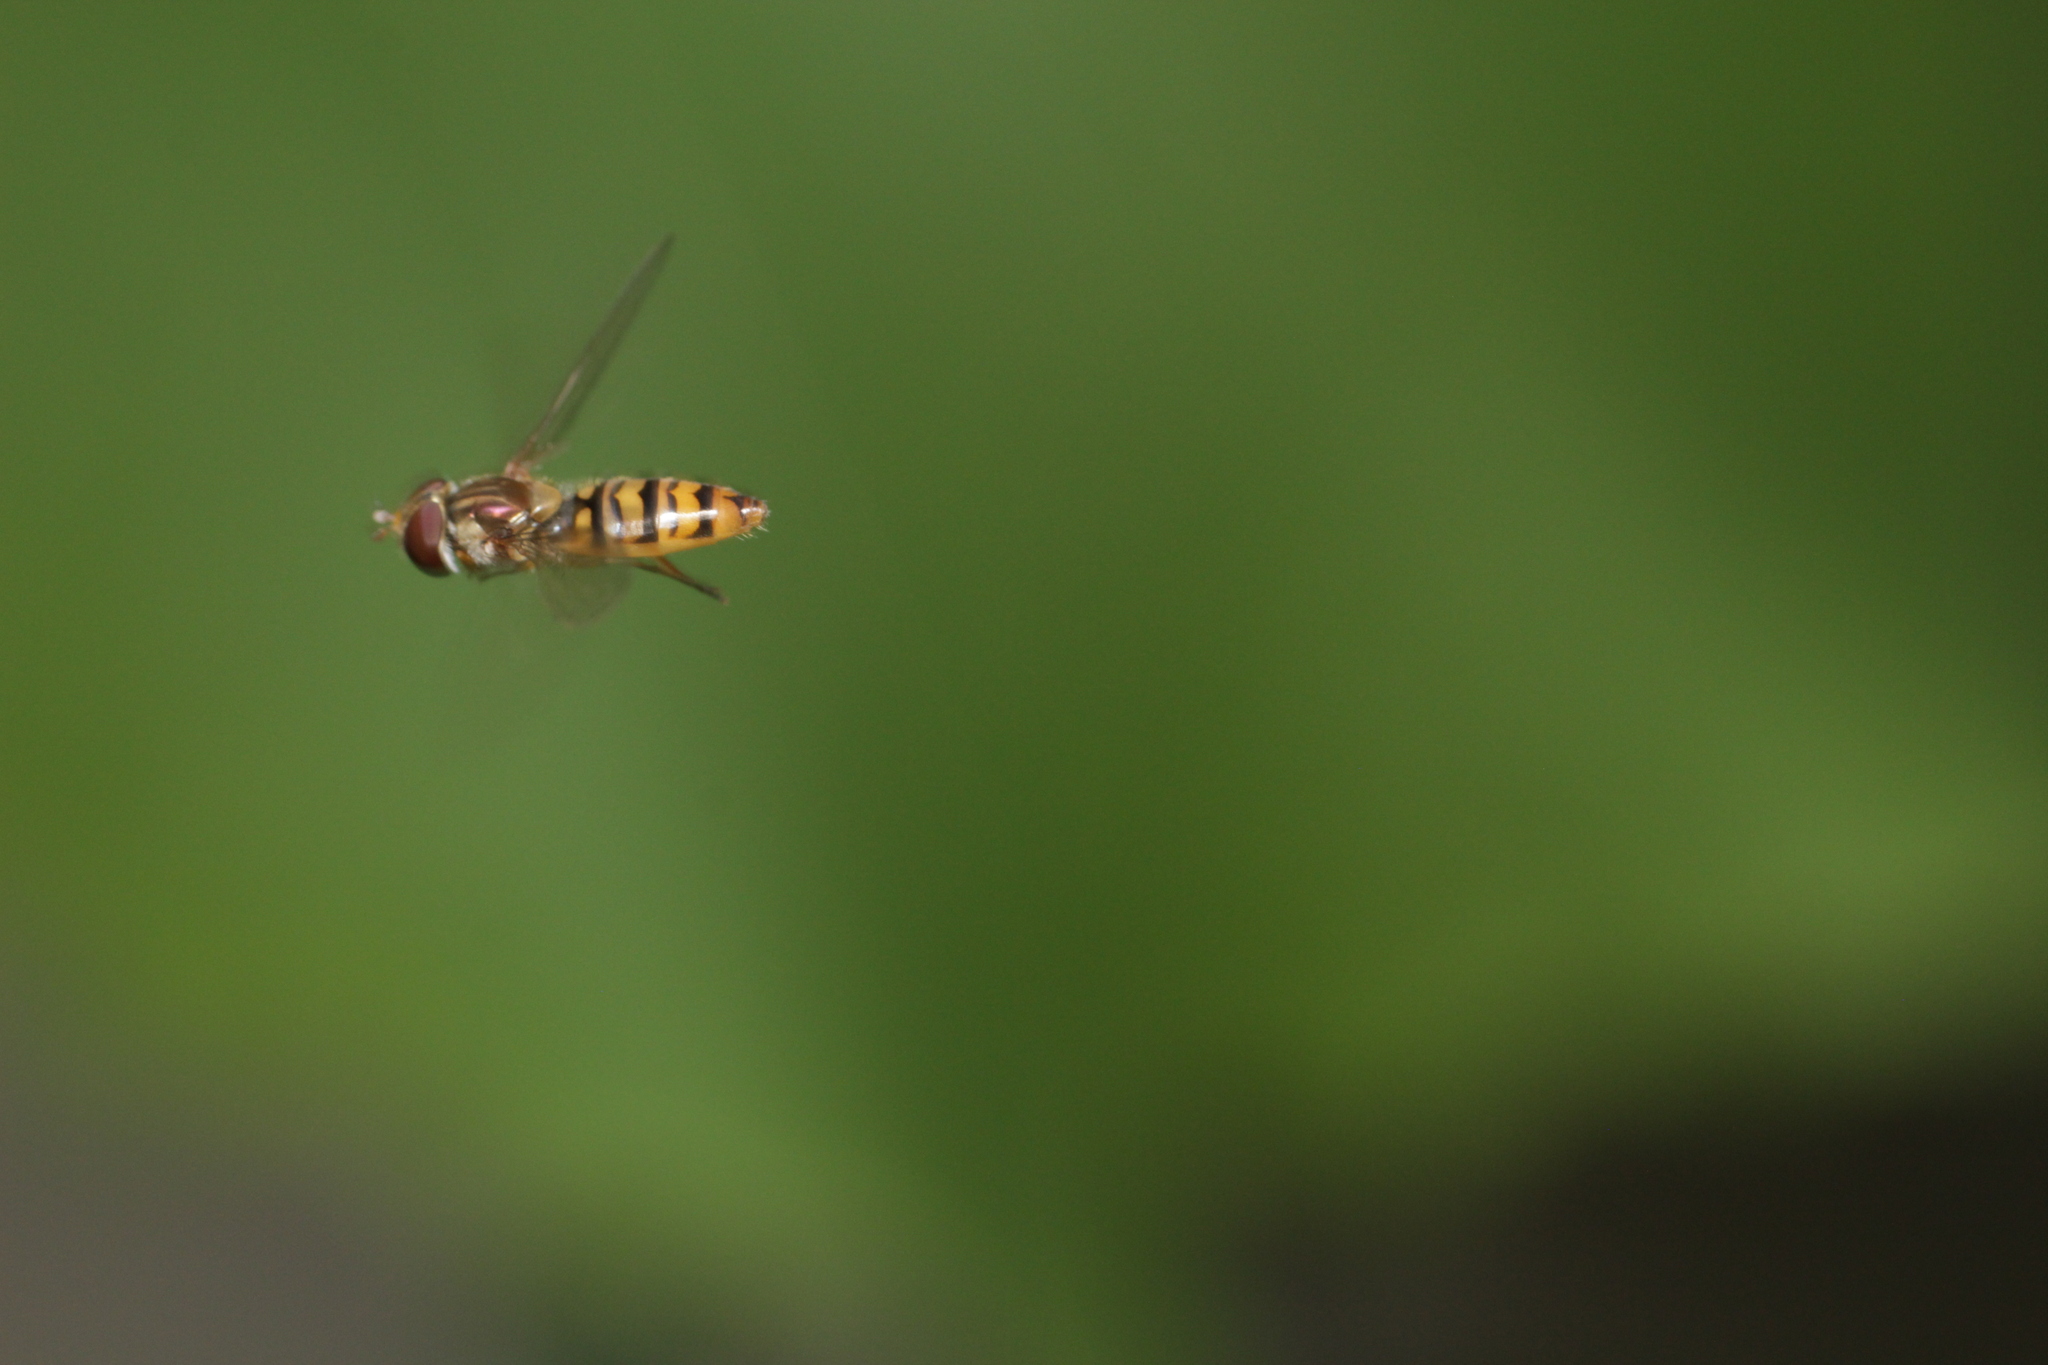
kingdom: Animalia
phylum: Arthropoda
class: Insecta
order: Diptera
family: Syrphidae
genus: Episyrphus
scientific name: Episyrphus balteatus
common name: Marmalade hoverfly
